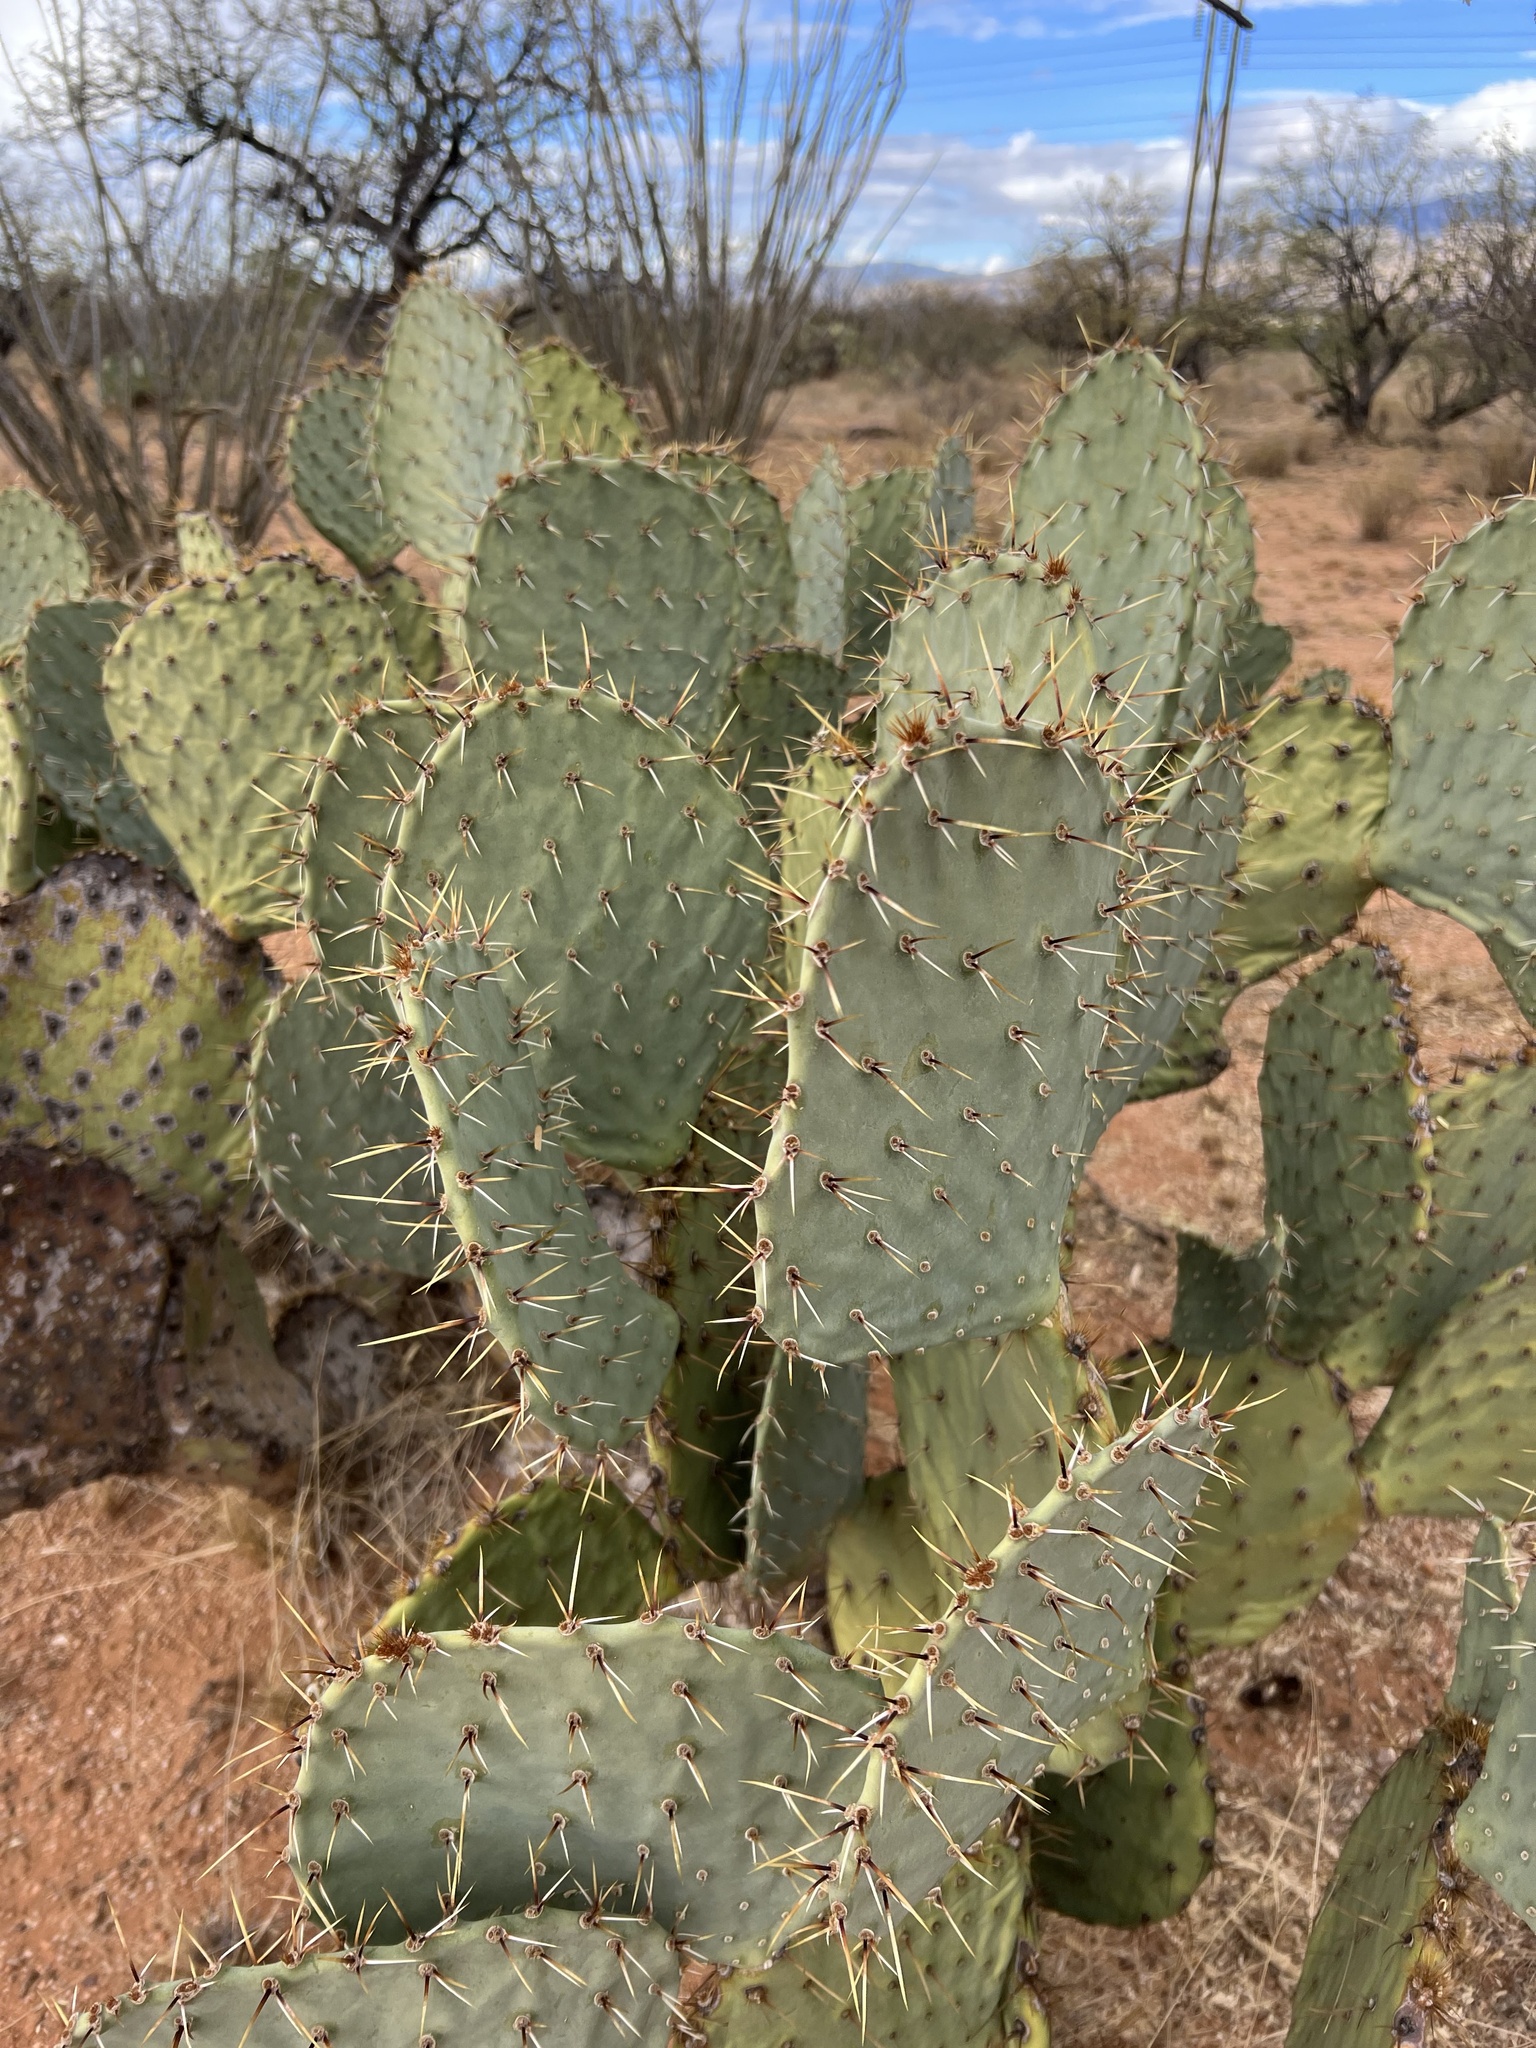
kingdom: Plantae
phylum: Tracheophyta
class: Magnoliopsida
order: Caryophyllales
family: Cactaceae
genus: Opuntia
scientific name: Opuntia engelmannii
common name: Cactus-apple
